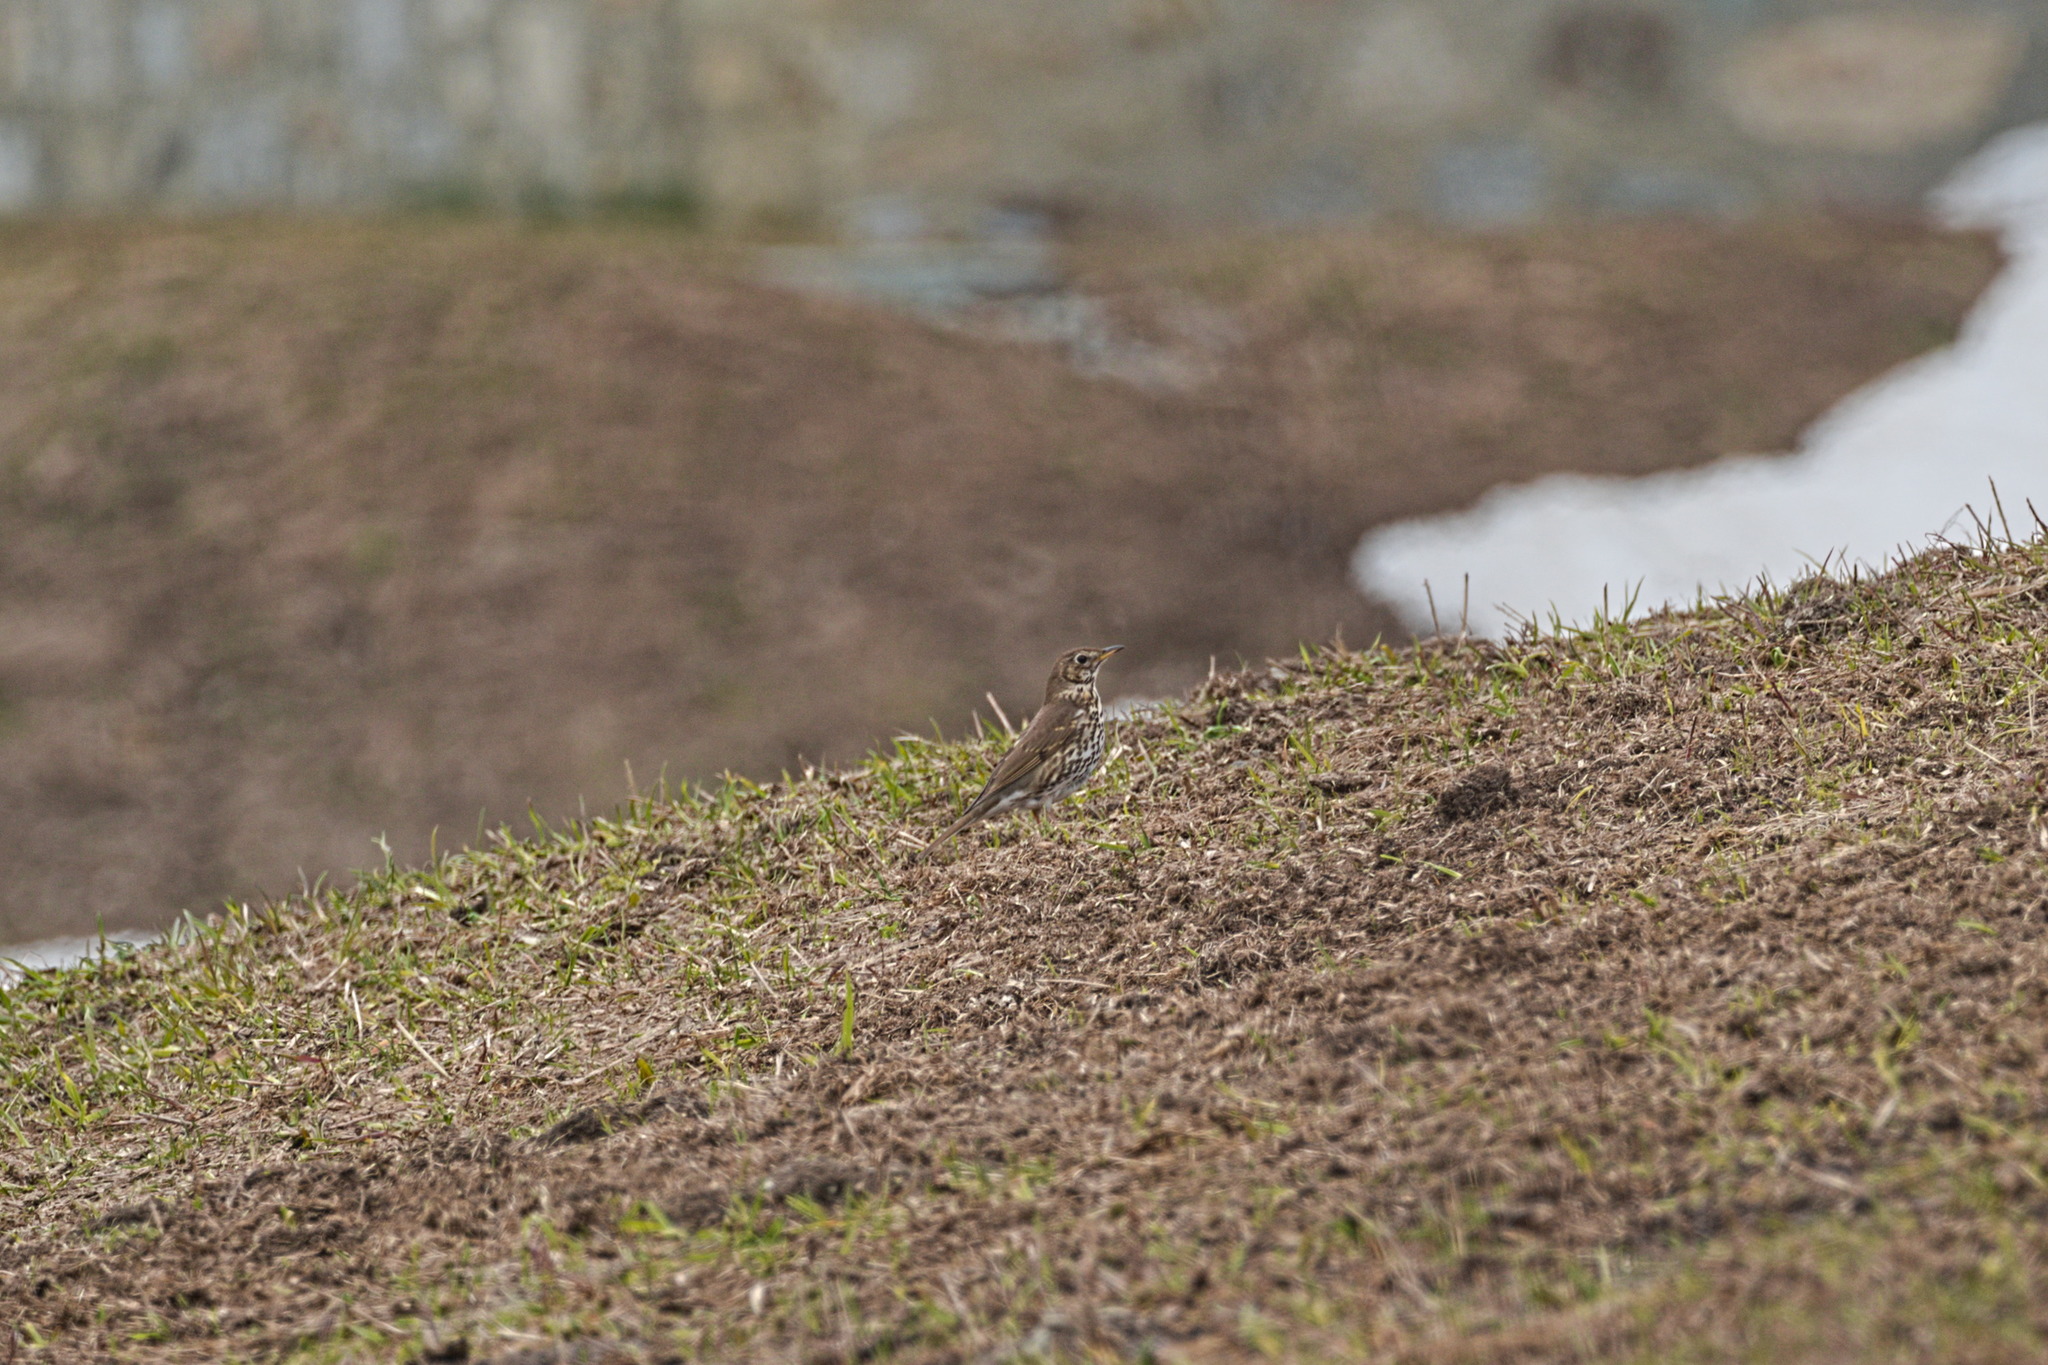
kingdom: Animalia
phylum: Chordata
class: Aves
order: Passeriformes
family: Turdidae
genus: Turdus
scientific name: Turdus philomelos
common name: Song thrush
